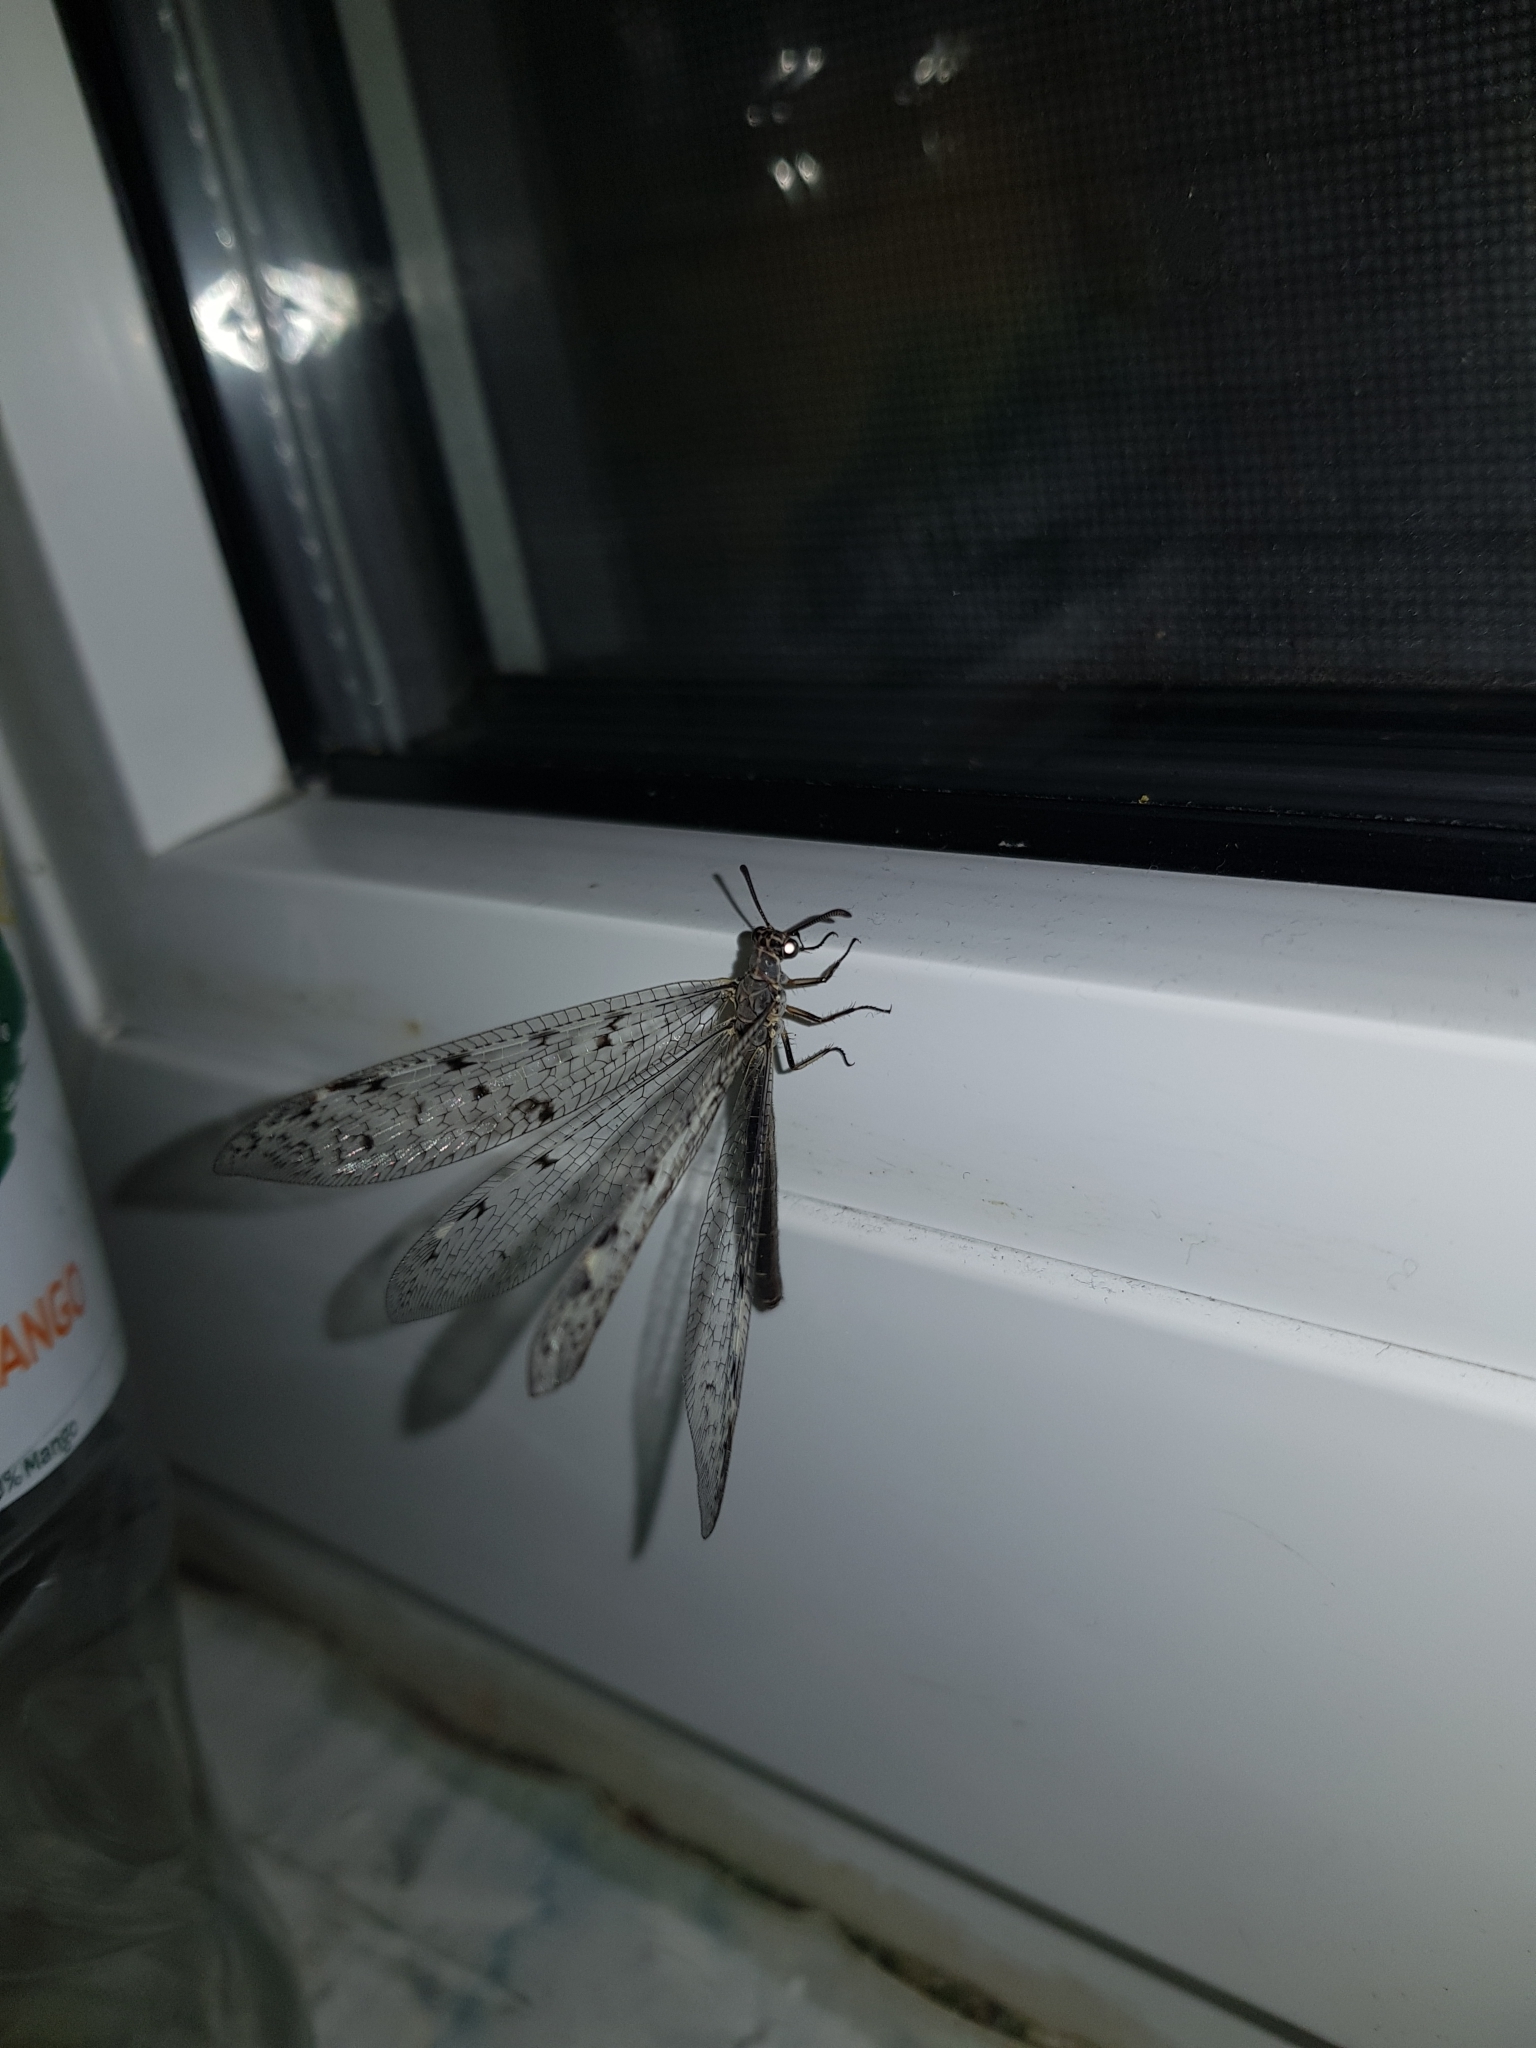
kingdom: Animalia
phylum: Arthropoda
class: Insecta
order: Neuroptera
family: Myrmeleontidae
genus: Euroleon
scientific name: Euroleon nostras
